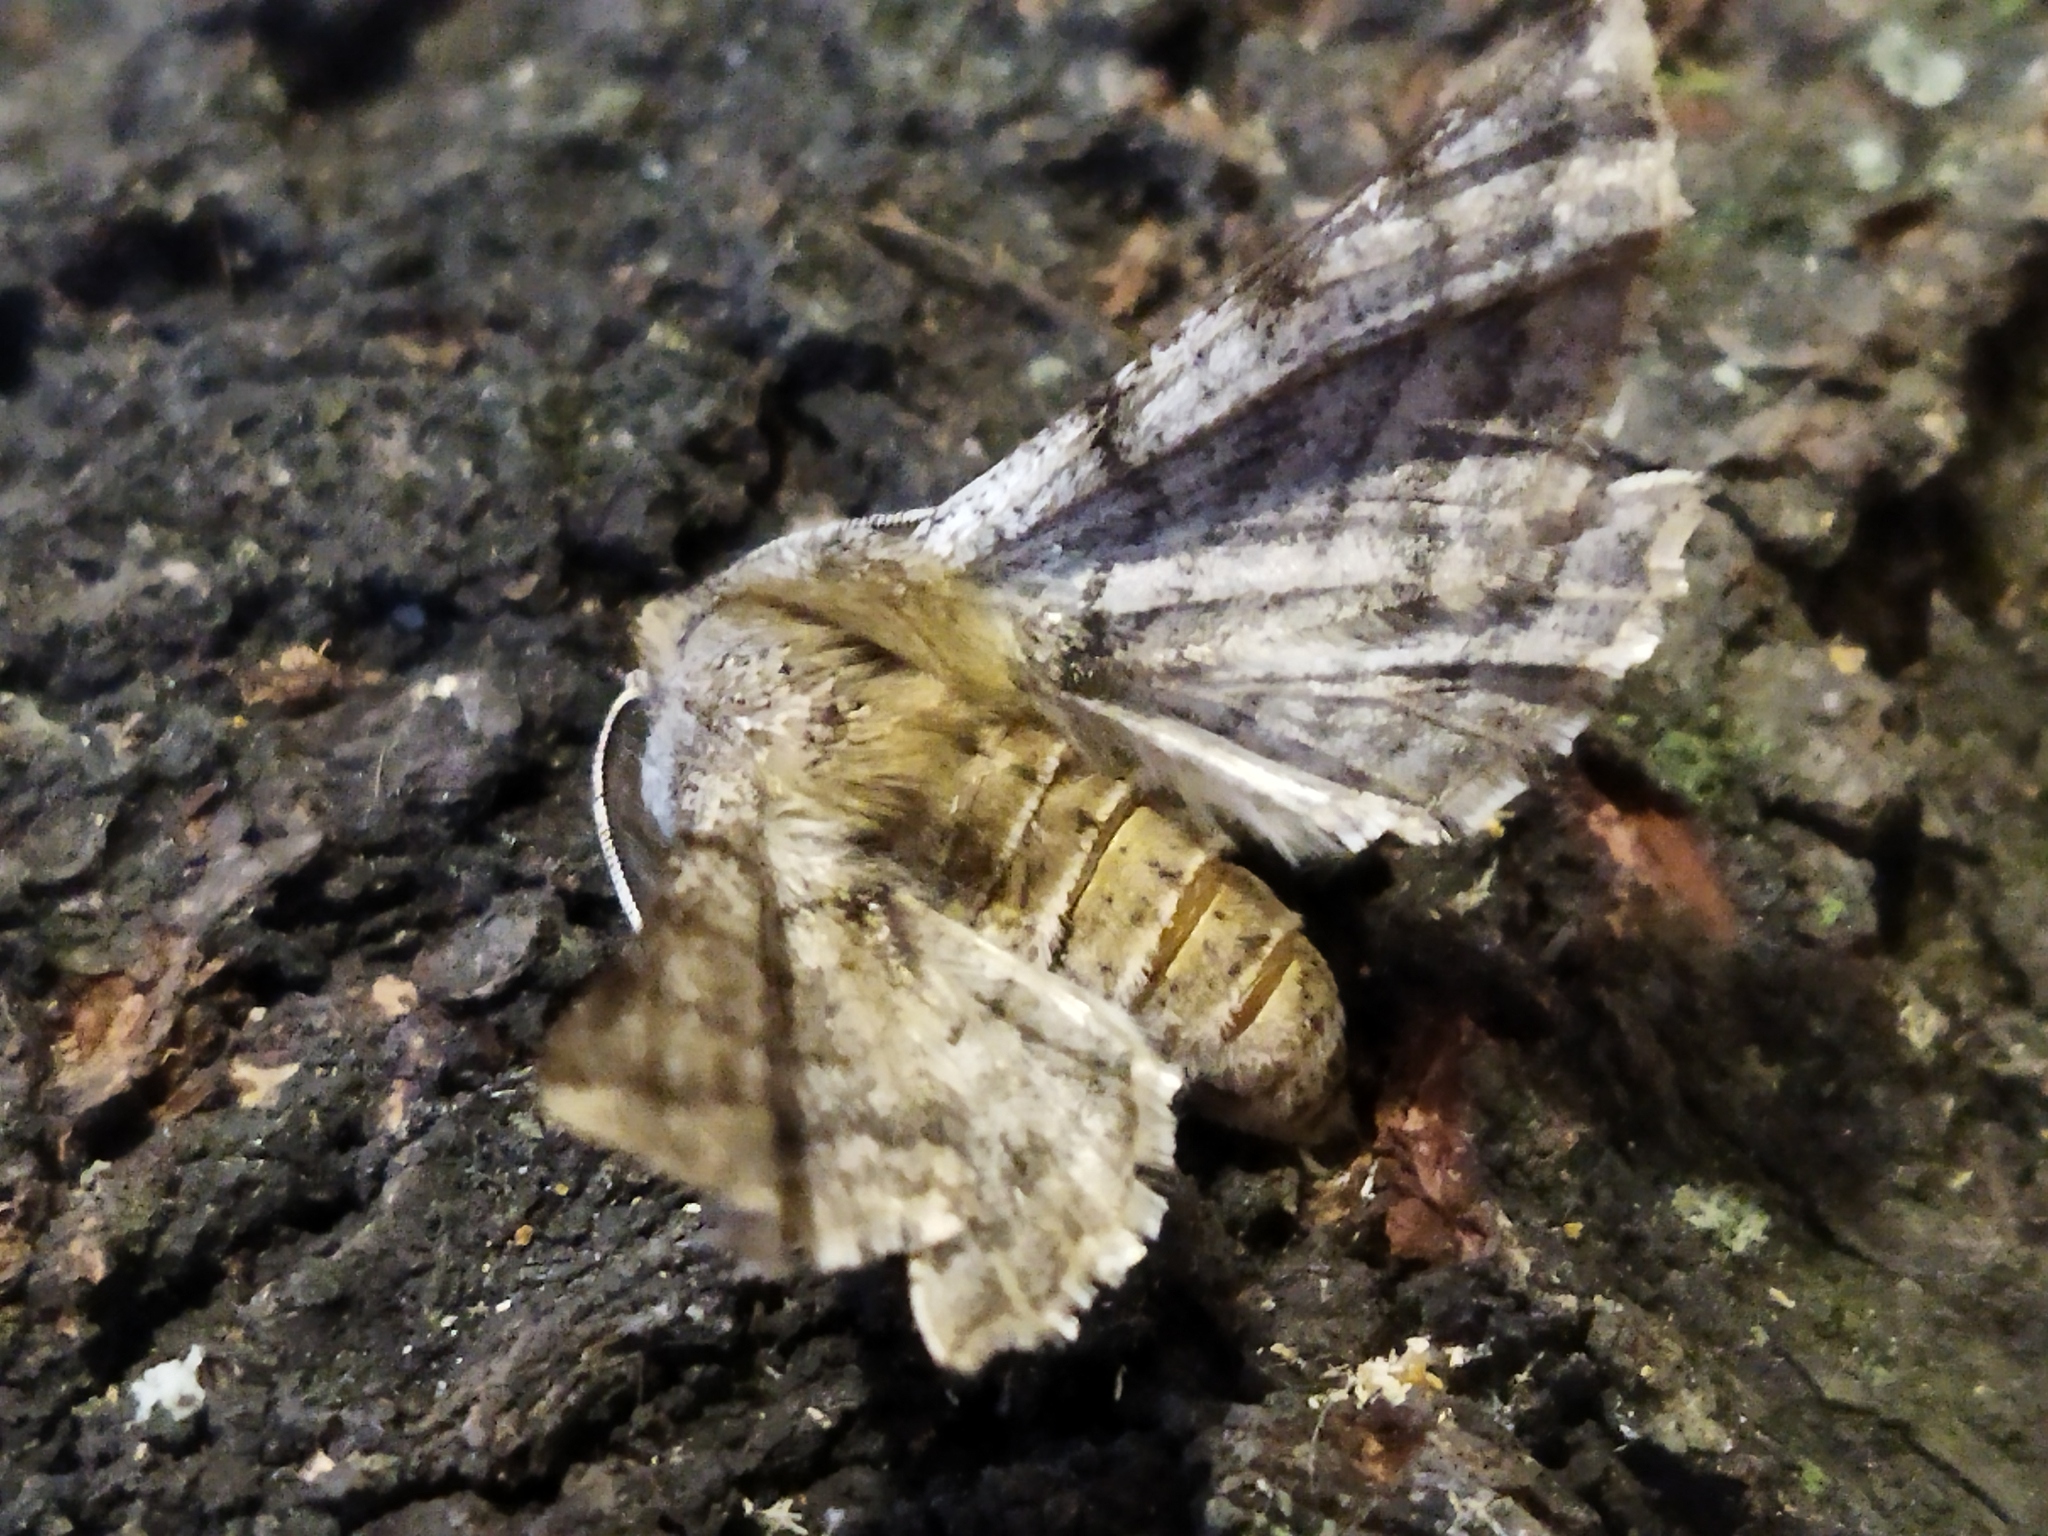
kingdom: Animalia
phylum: Arthropoda
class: Insecta
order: Lepidoptera
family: Geometridae
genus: Apochima
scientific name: Apochima flabellaria
